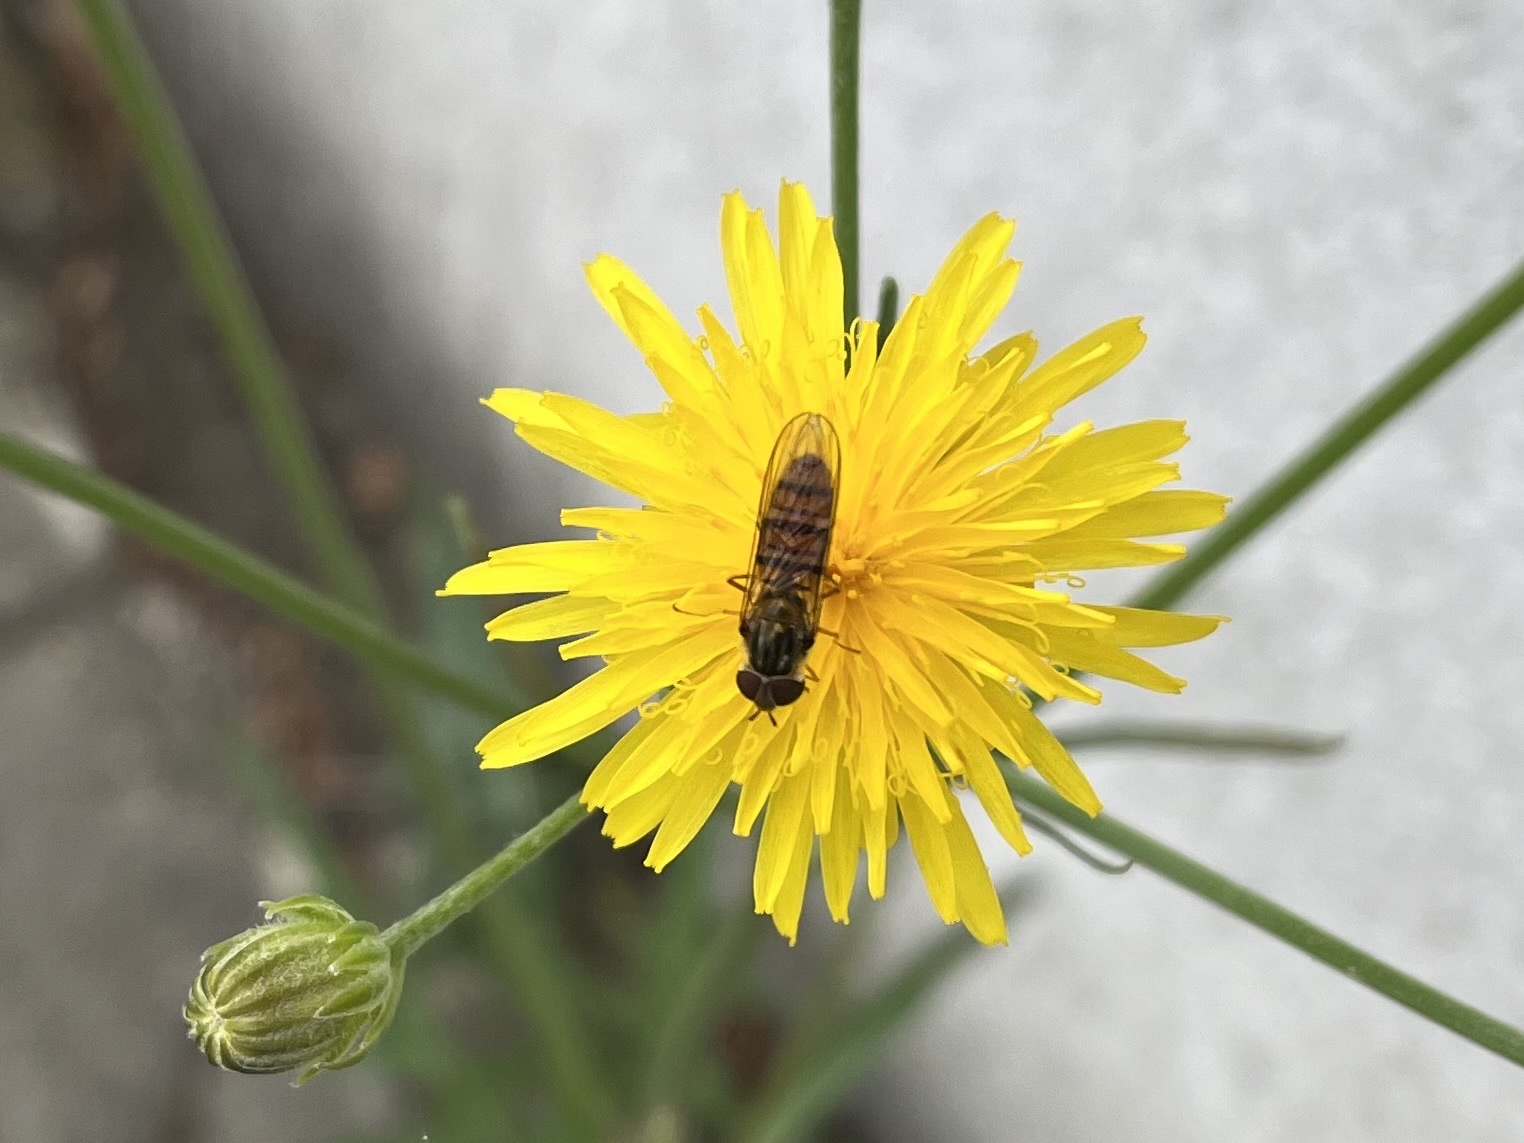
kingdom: Animalia
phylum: Arthropoda
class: Insecta
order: Diptera
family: Syrphidae
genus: Episyrphus
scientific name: Episyrphus balteatus
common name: Marmalade hoverfly
